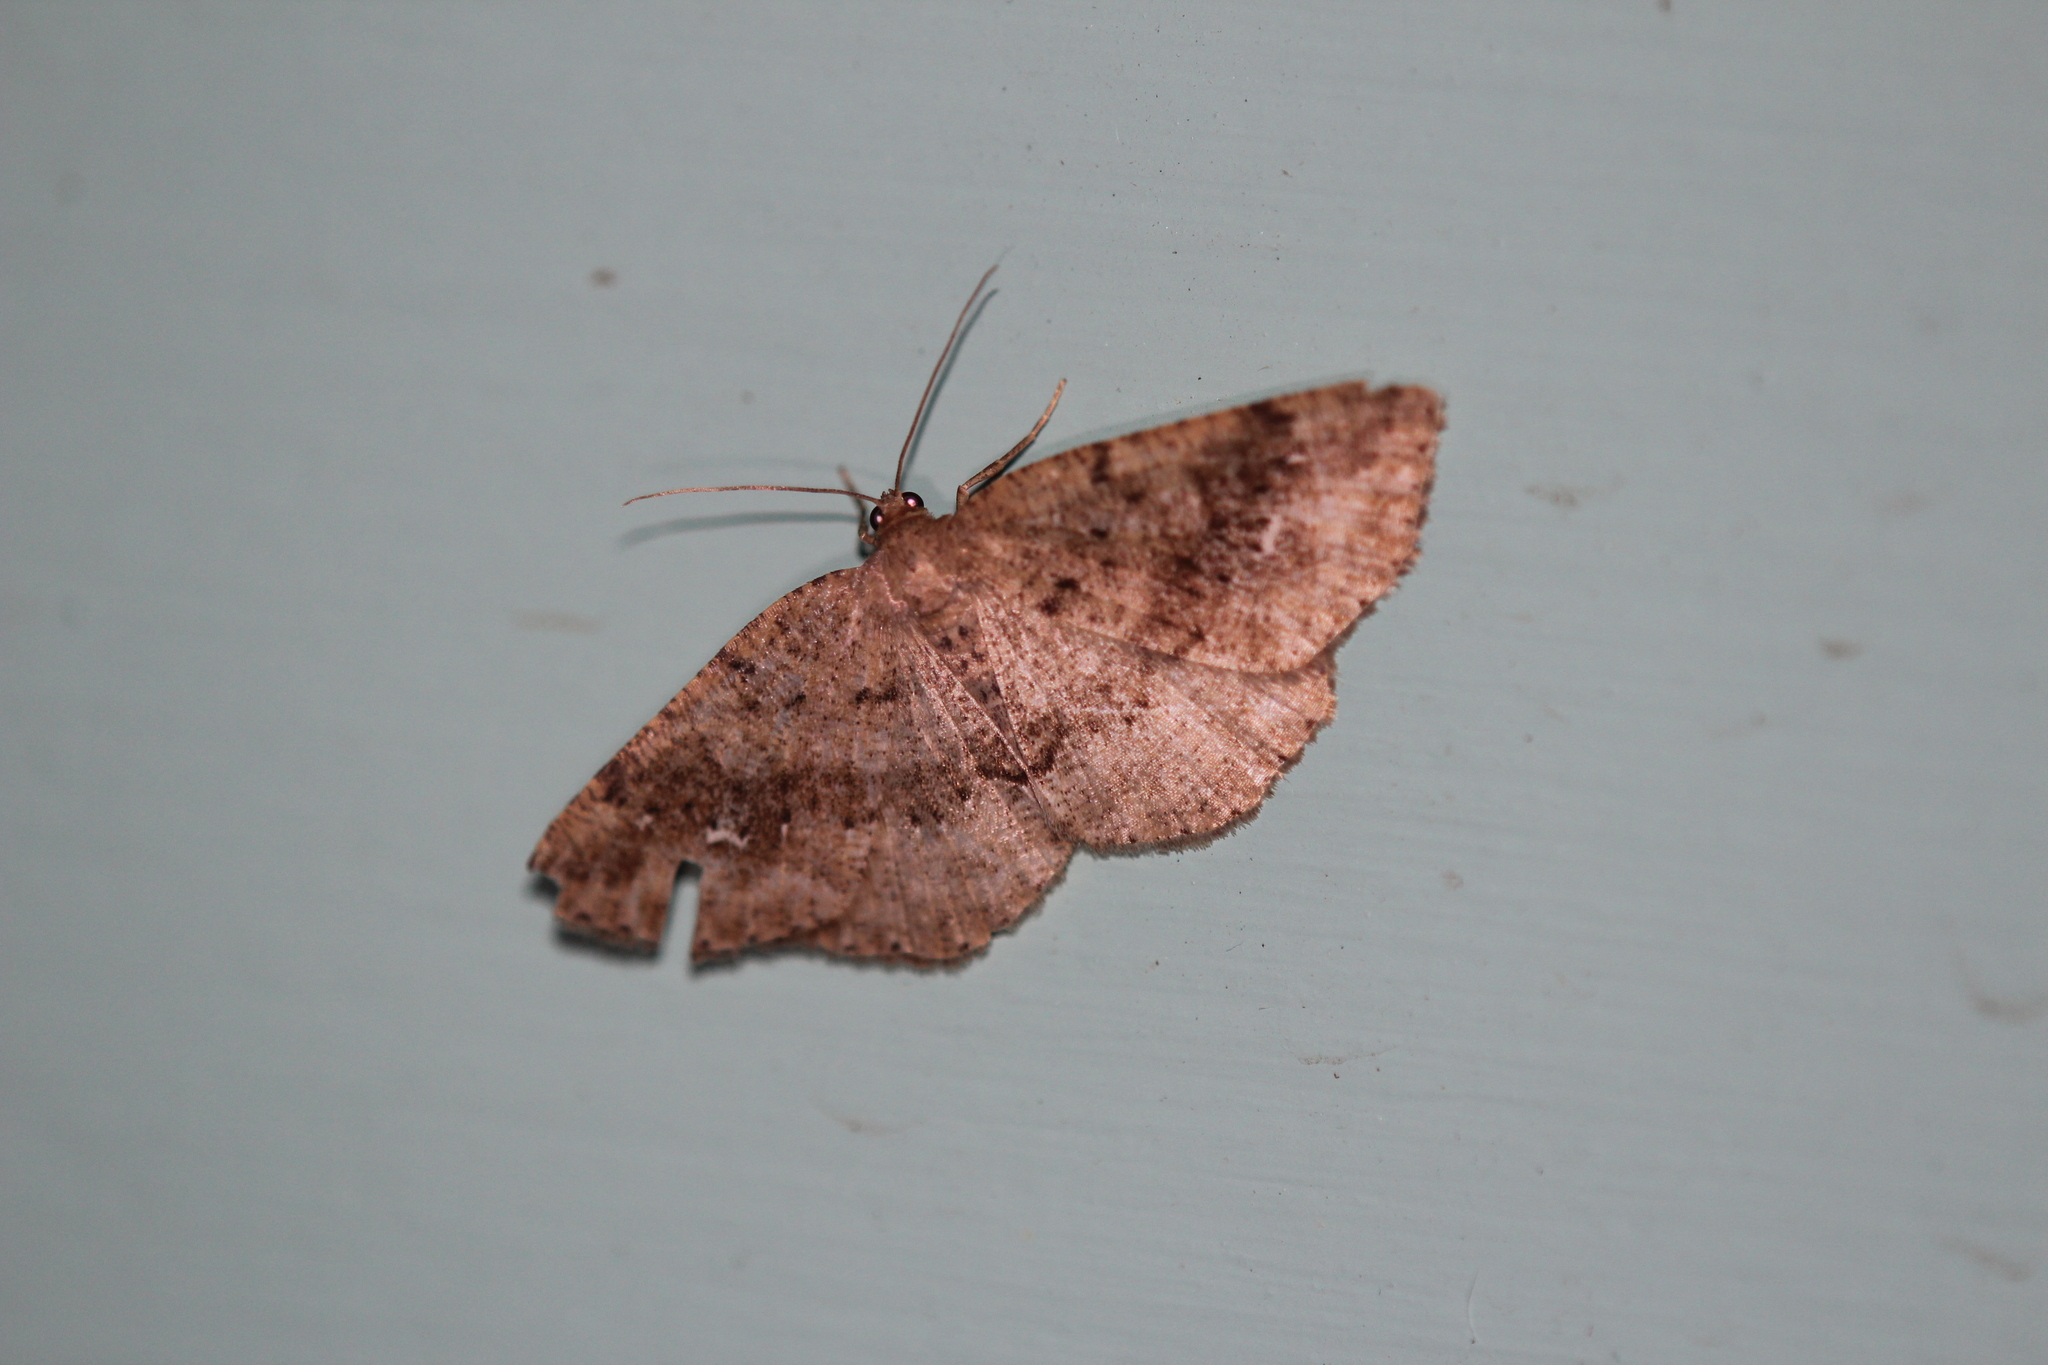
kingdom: Animalia
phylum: Arthropoda
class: Insecta
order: Lepidoptera
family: Geometridae
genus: Homochlodes
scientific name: Homochlodes fritillaria
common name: Pale homochlodes
